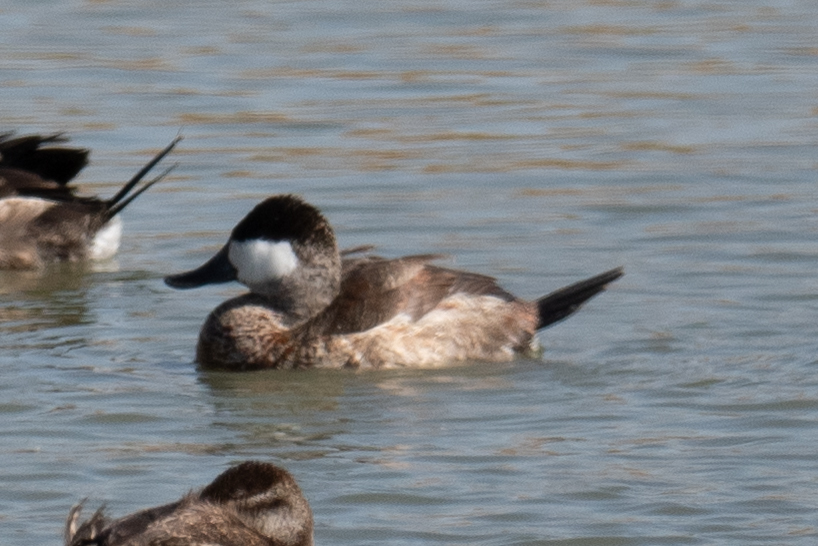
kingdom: Animalia
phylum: Chordata
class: Aves
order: Anseriformes
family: Anatidae
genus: Oxyura
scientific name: Oxyura jamaicensis
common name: Ruddy duck
